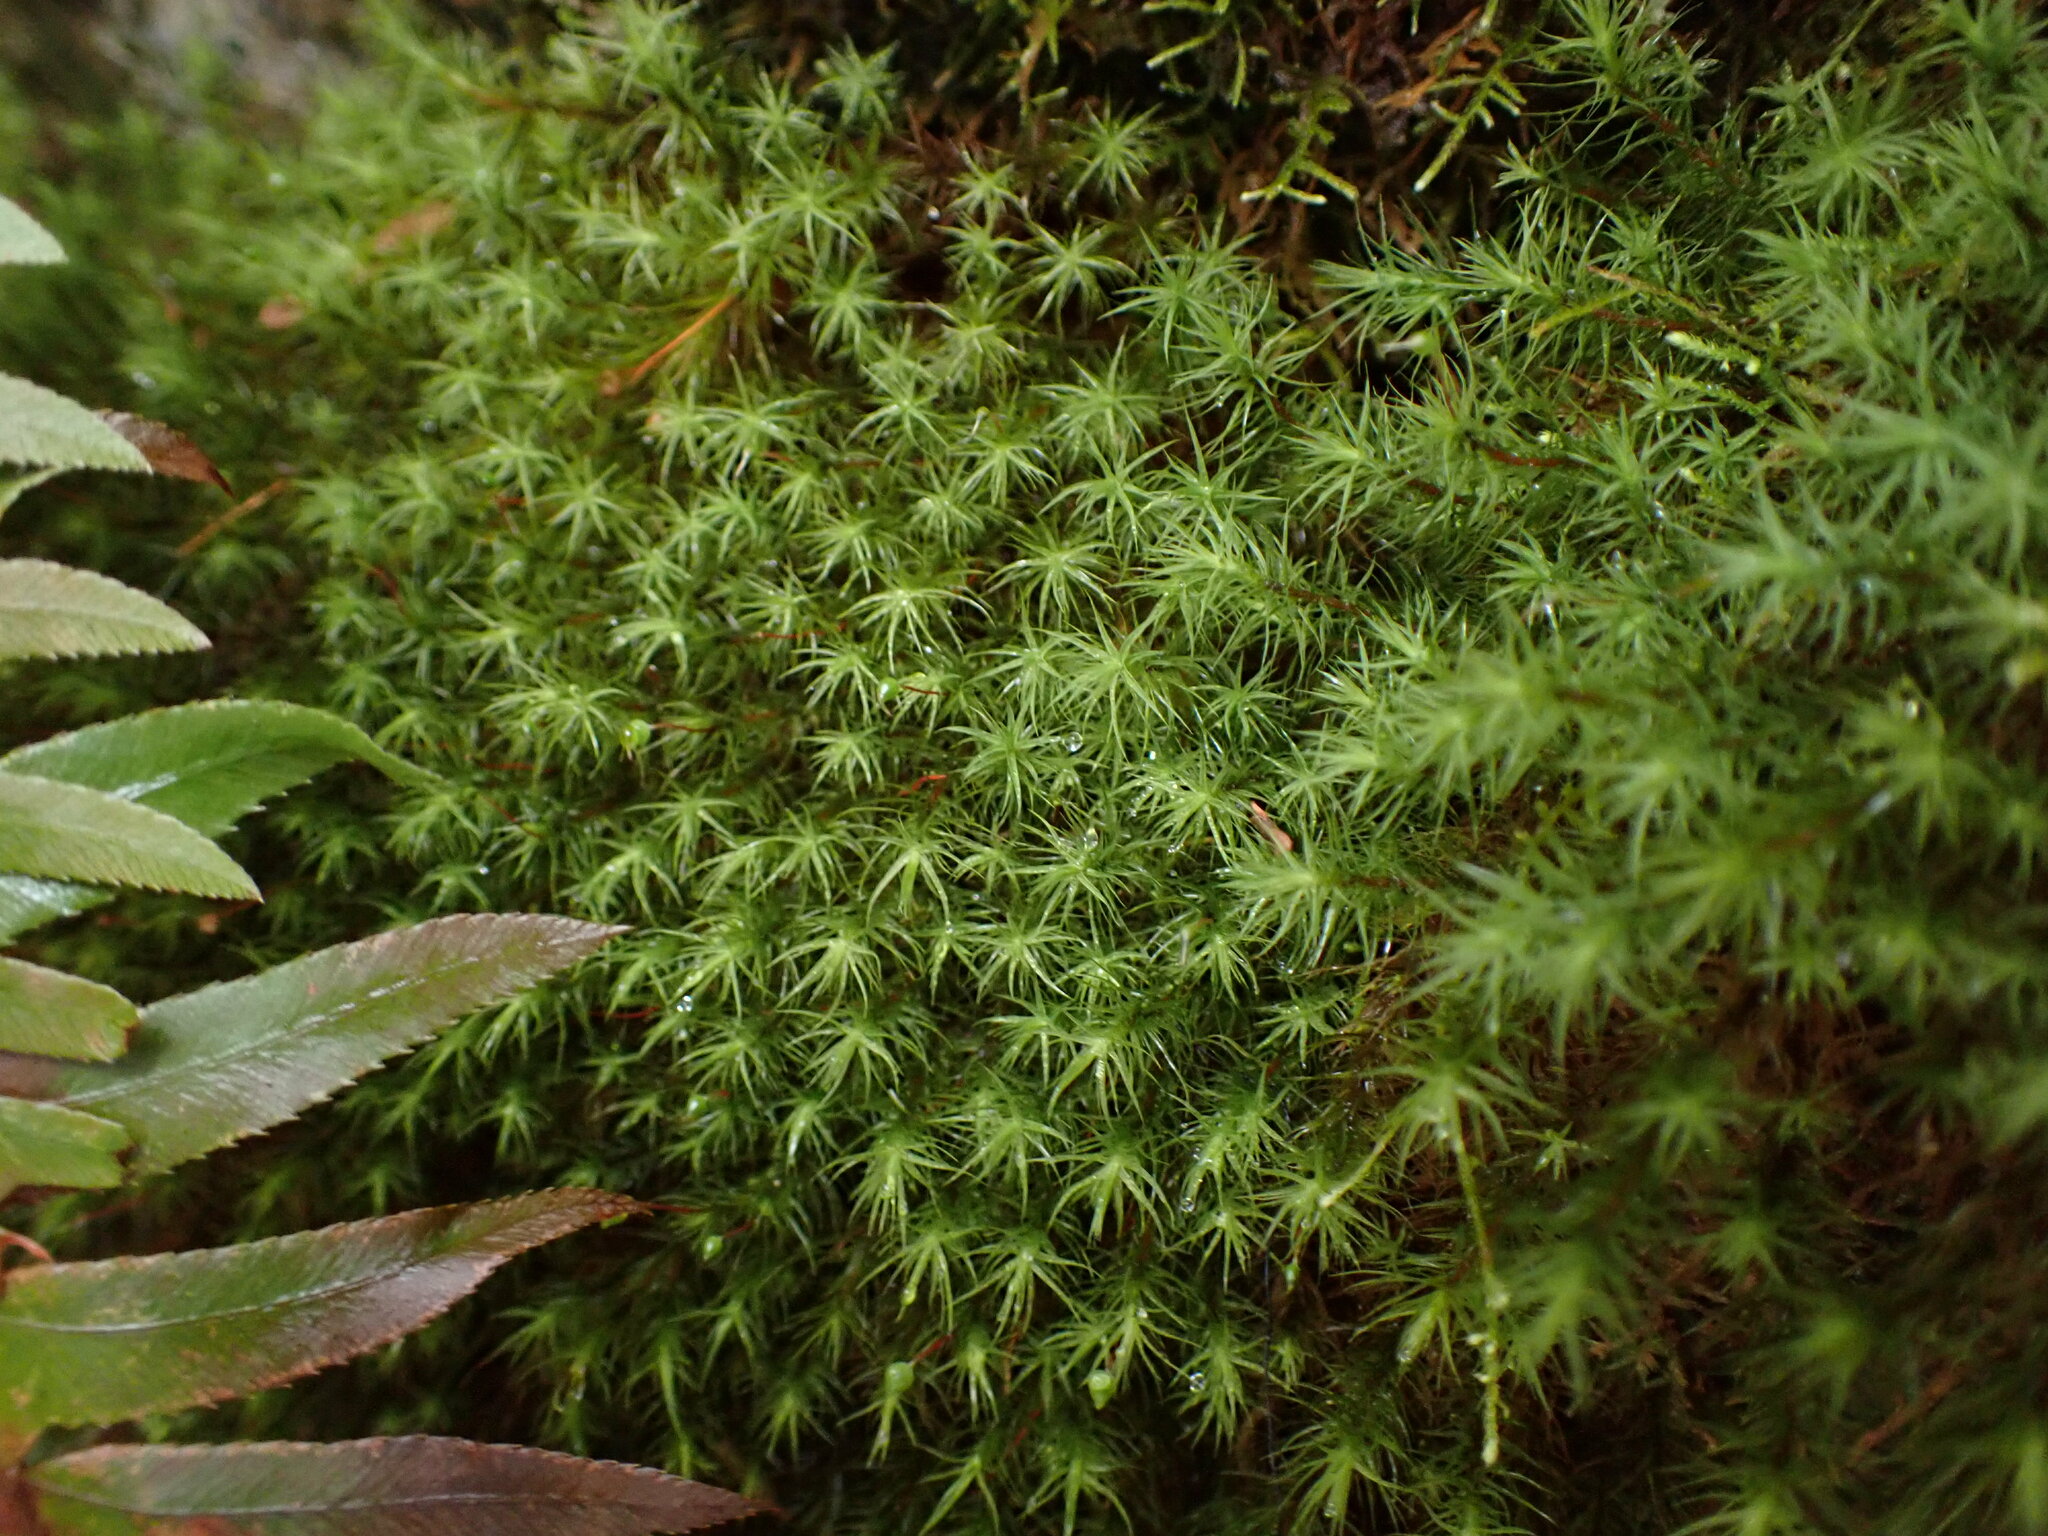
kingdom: Plantae
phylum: Bryophyta
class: Bryopsida
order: Bartramiales
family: Bartramiaceae
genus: Bartramia
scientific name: Bartramia ithyphylla
